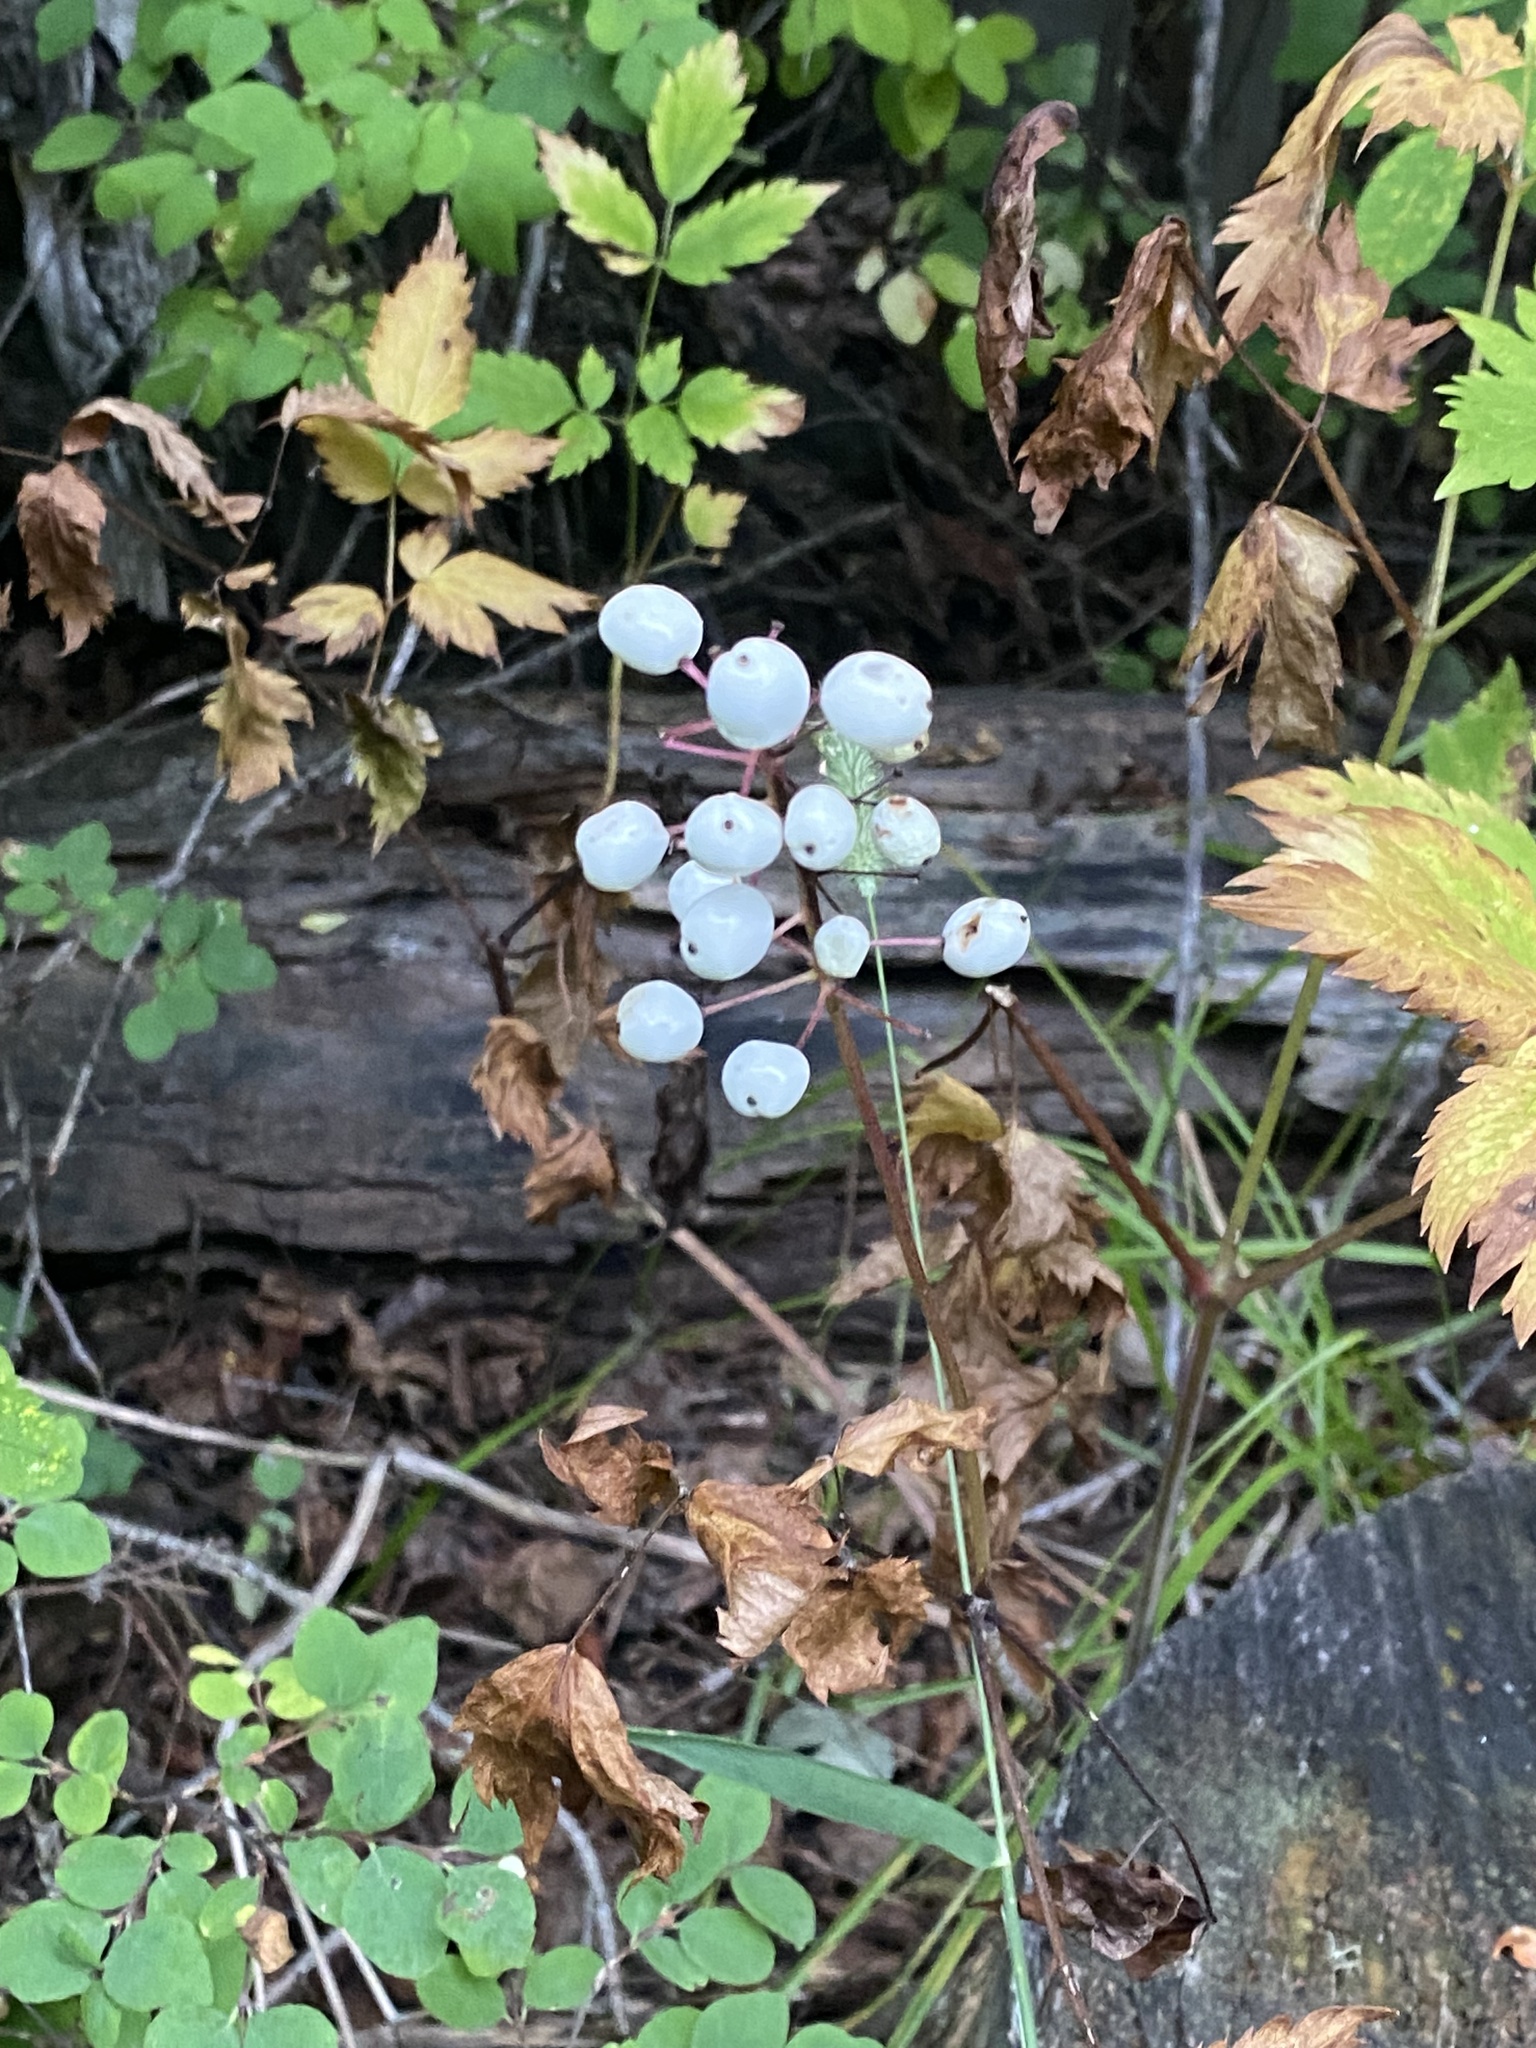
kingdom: Plantae
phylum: Tracheophyta
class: Magnoliopsida
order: Ranunculales
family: Ranunculaceae
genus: Actaea
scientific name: Actaea rubra
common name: Red baneberry
